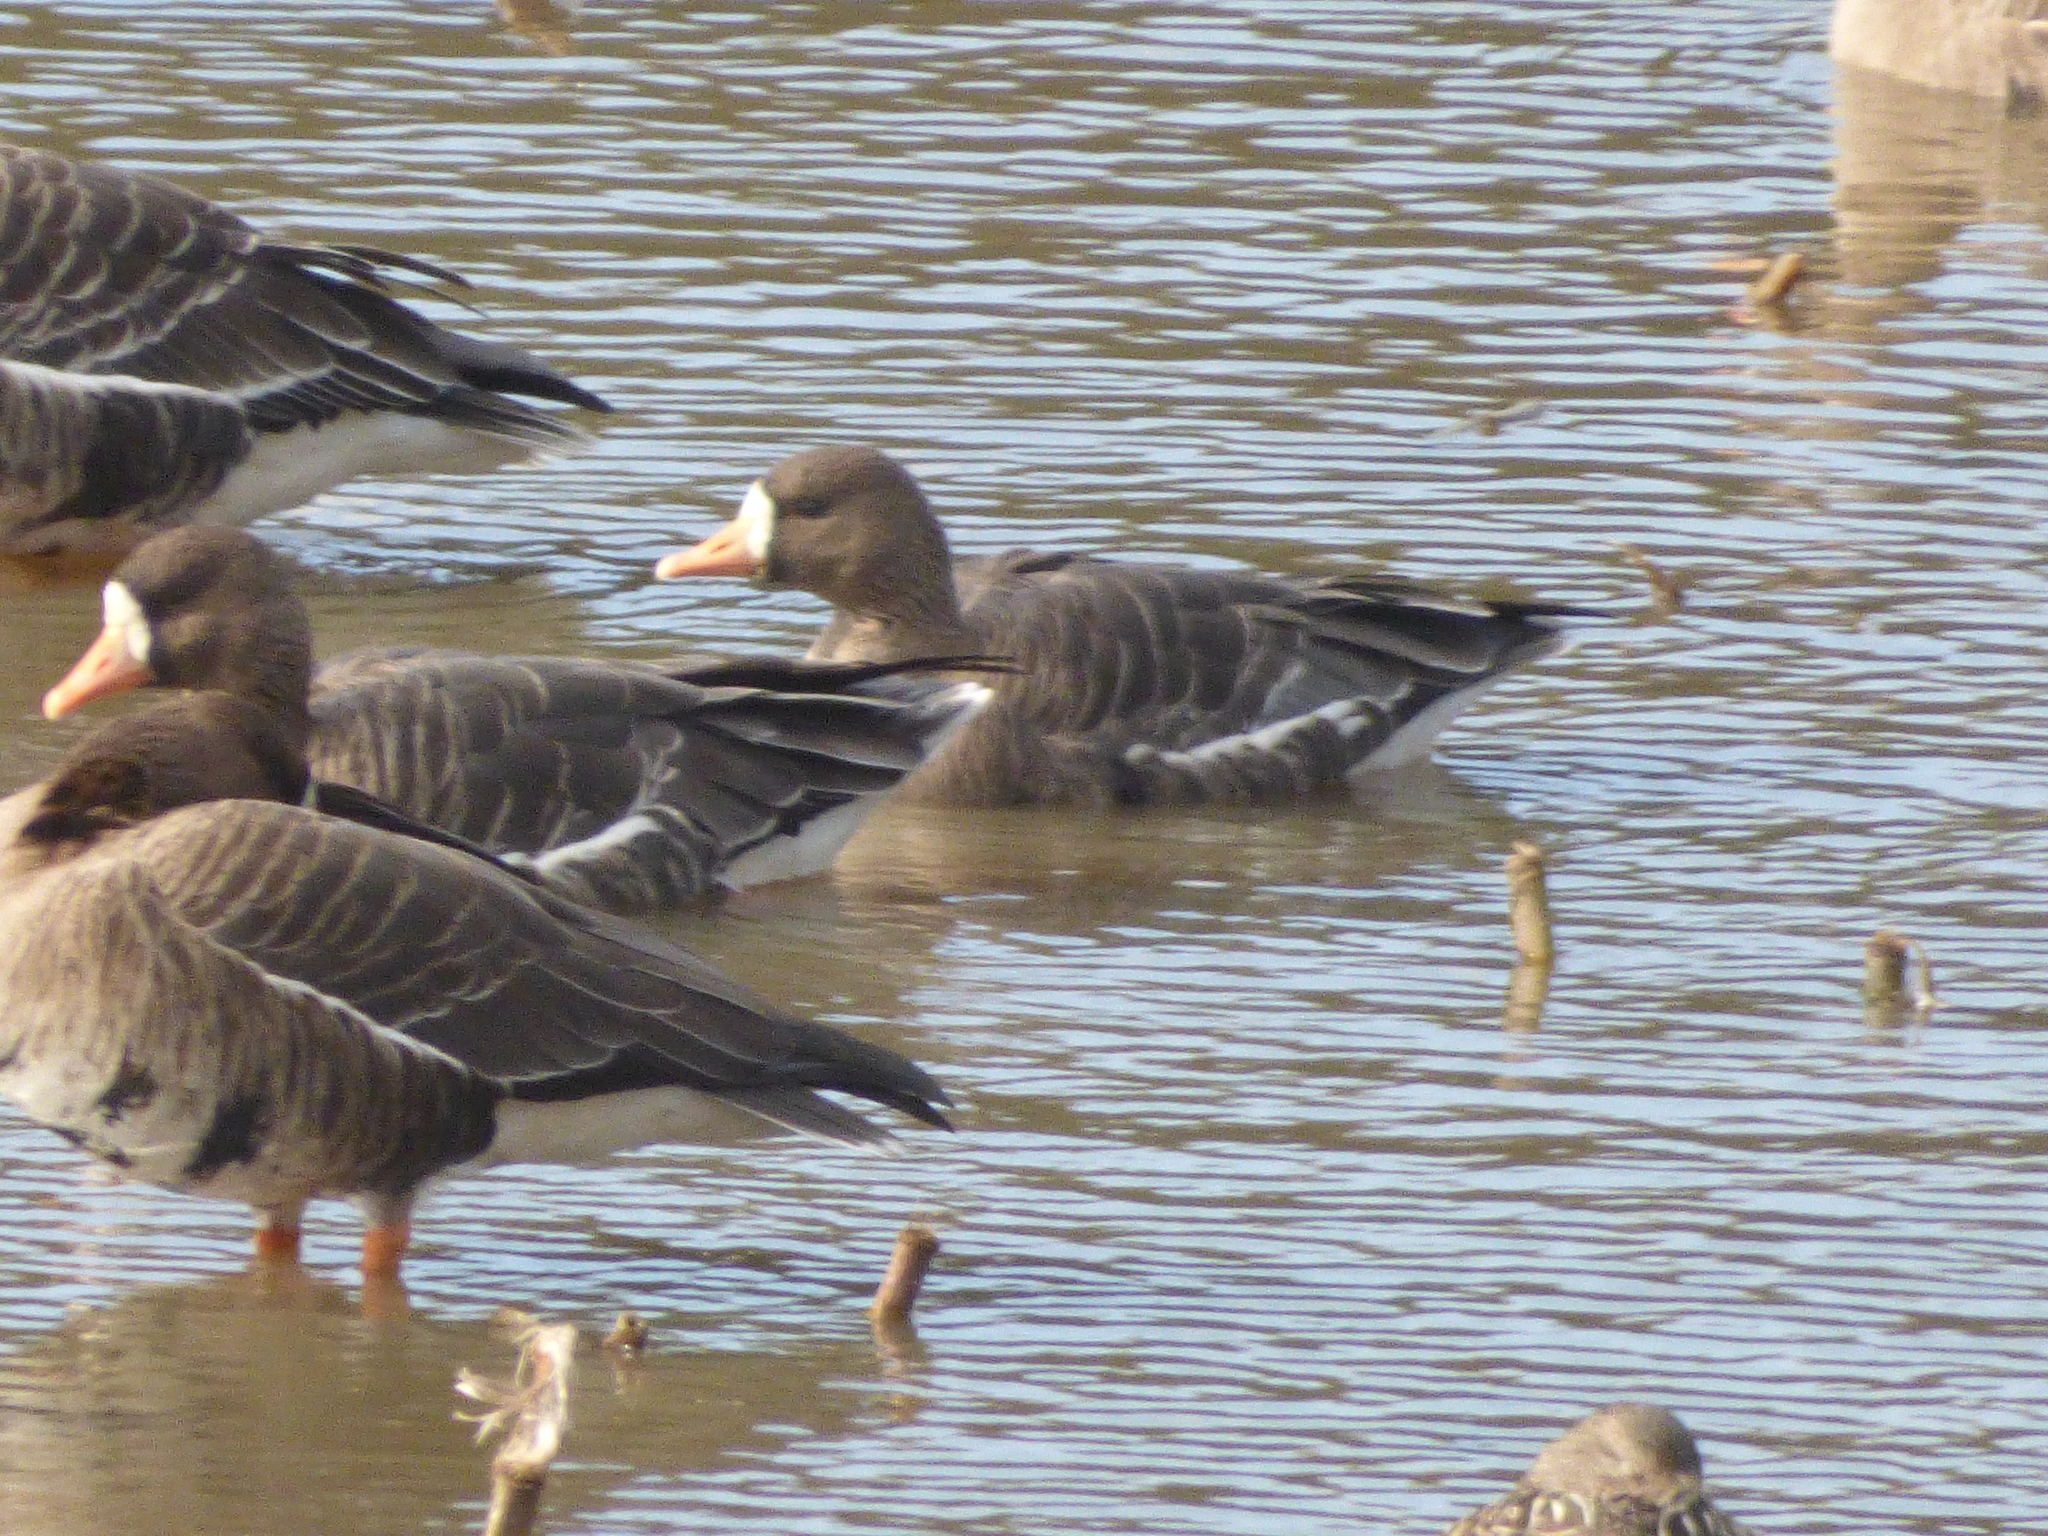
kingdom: Animalia
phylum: Chordata
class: Aves
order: Anseriformes
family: Anatidae
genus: Anser
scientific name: Anser albifrons
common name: Greater white-fronted goose
